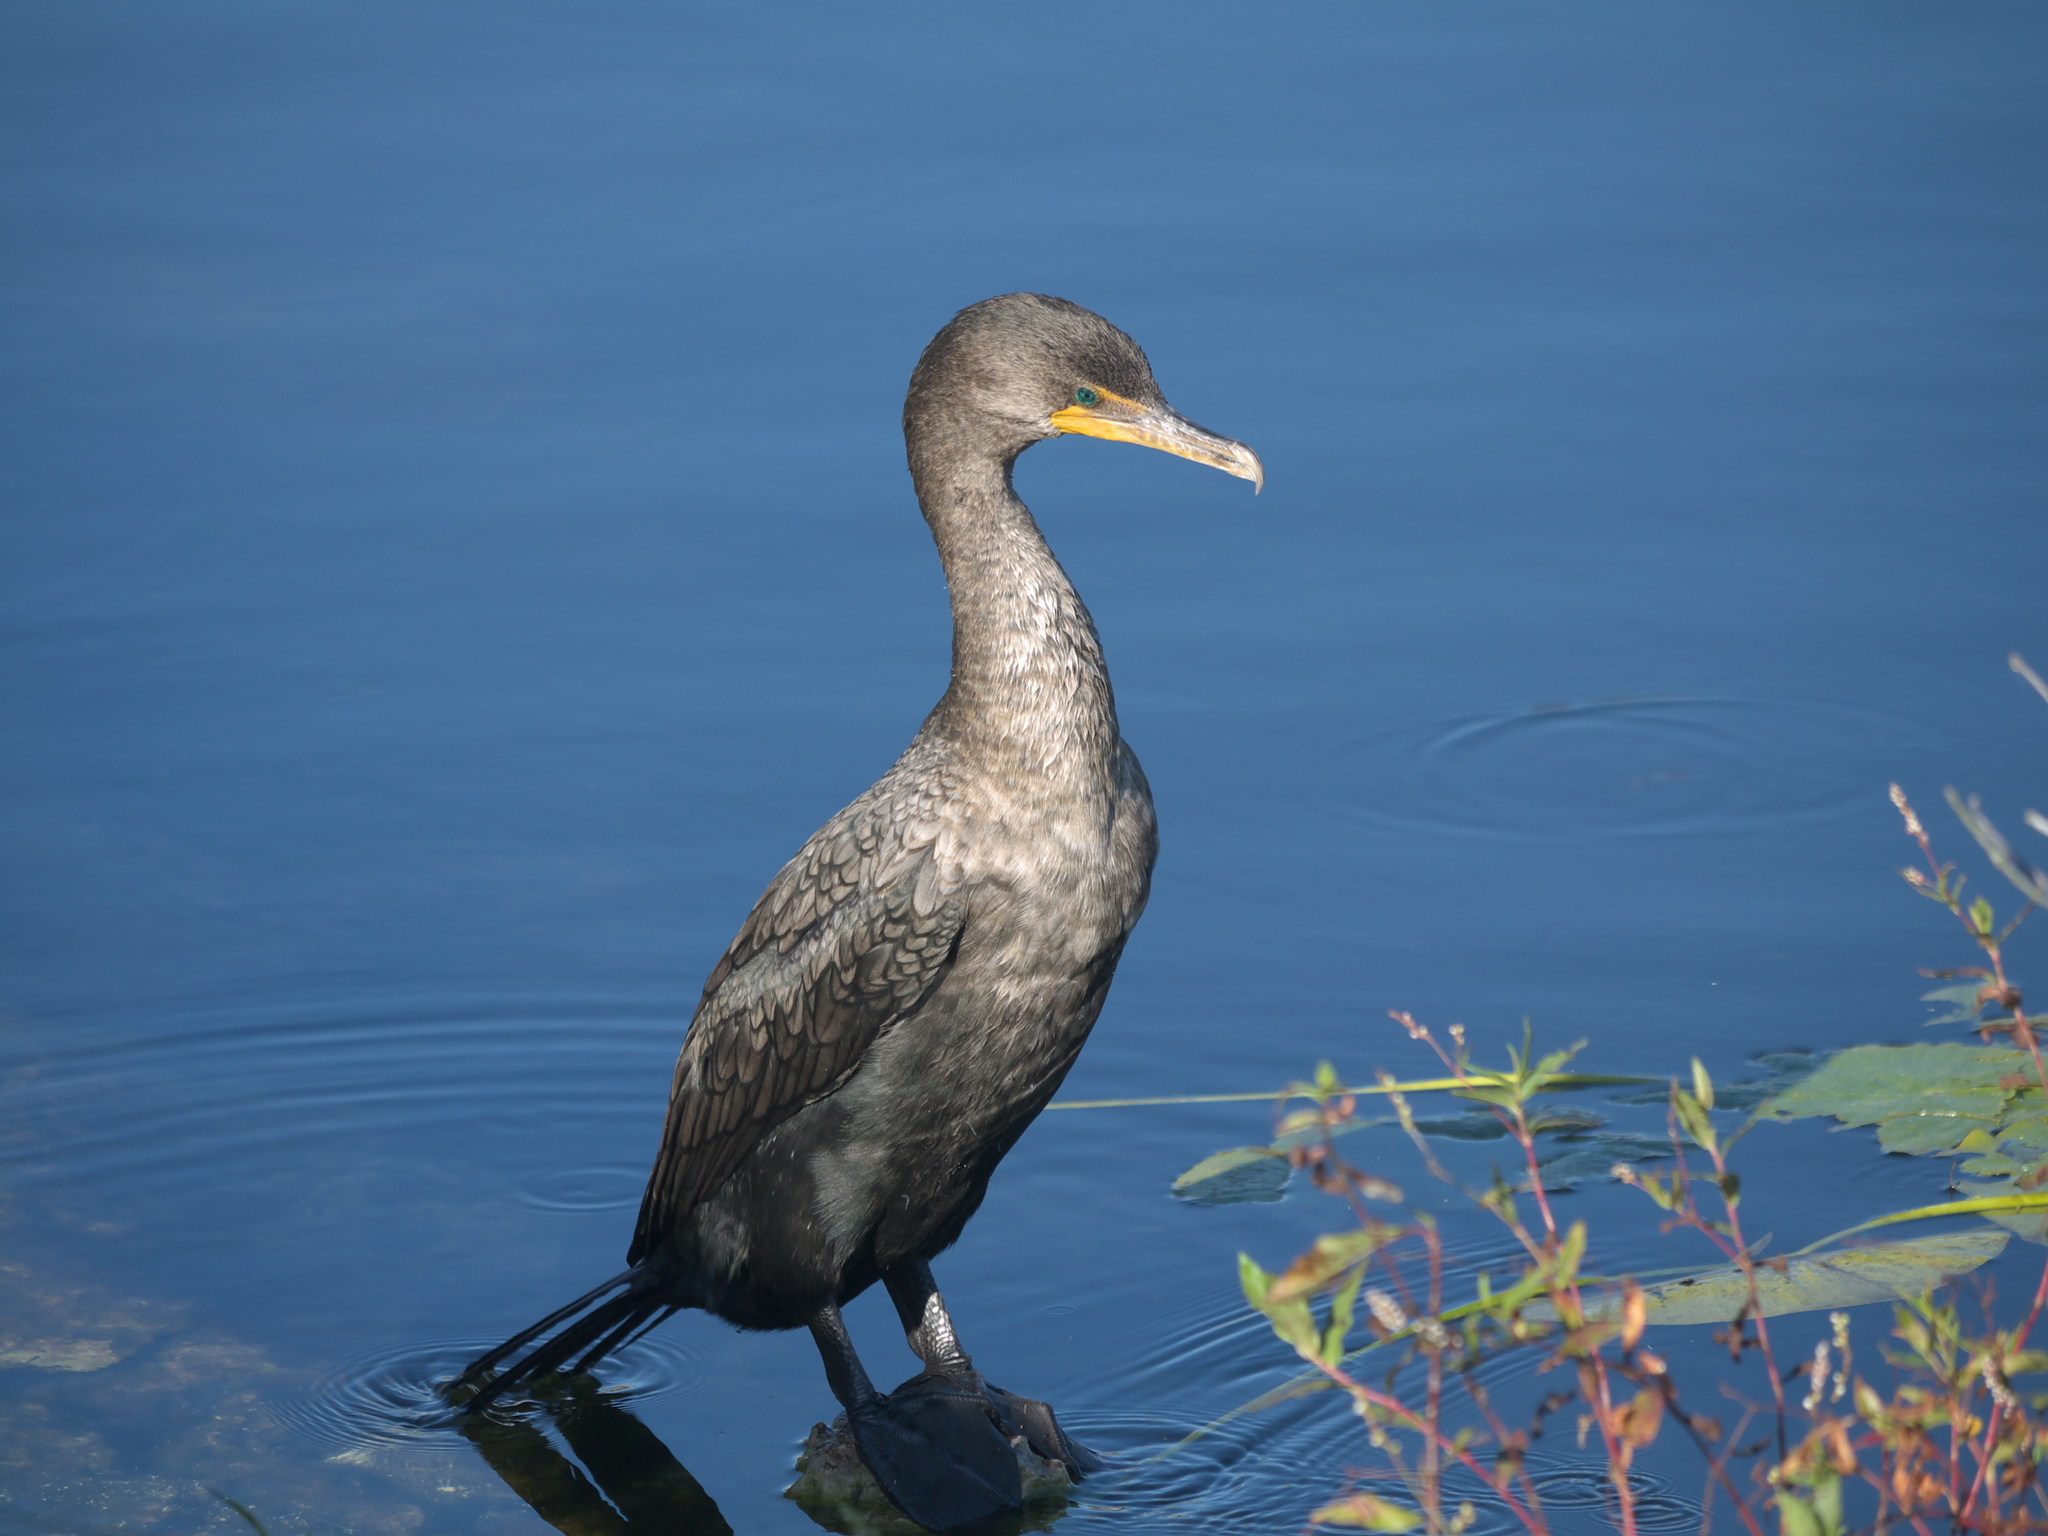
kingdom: Animalia
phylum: Chordata
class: Aves
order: Suliformes
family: Phalacrocoracidae
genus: Phalacrocorax
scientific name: Phalacrocorax auritus
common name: Double-crested cormorant
